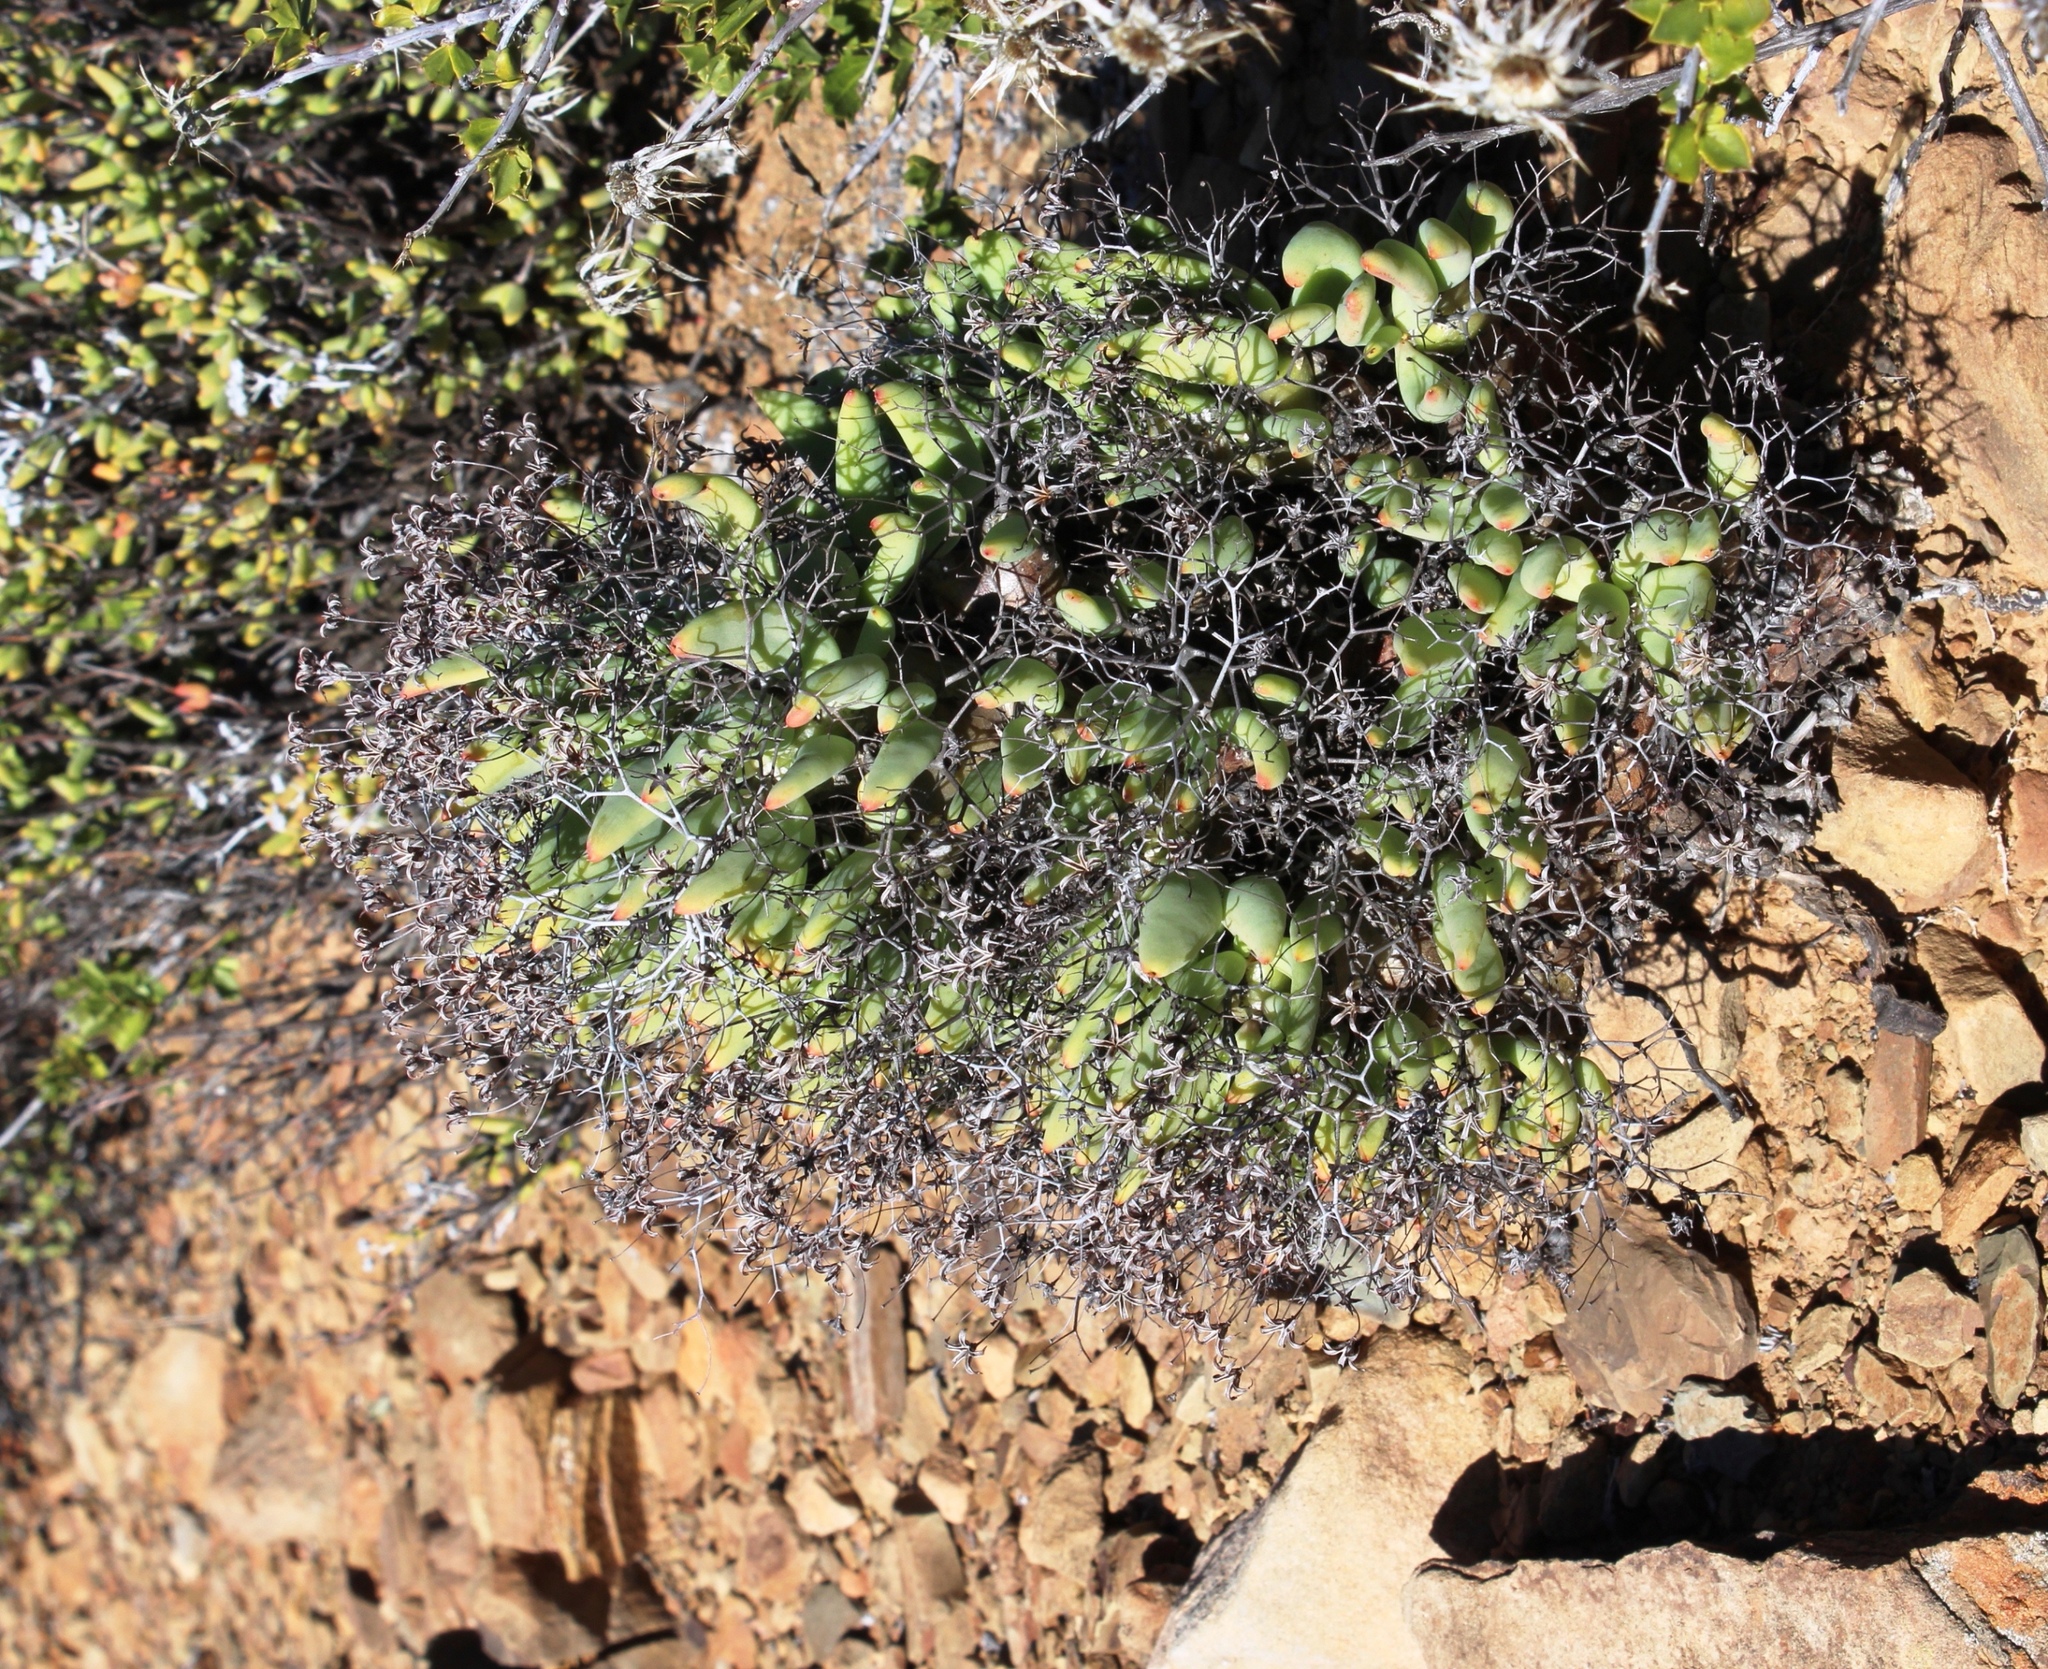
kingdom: Plantae
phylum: Tracheophyta
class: Magnoliopsida
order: Saxifragales
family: Crassulaceae
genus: Tylecodon
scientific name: Tylecodon reticulatus
